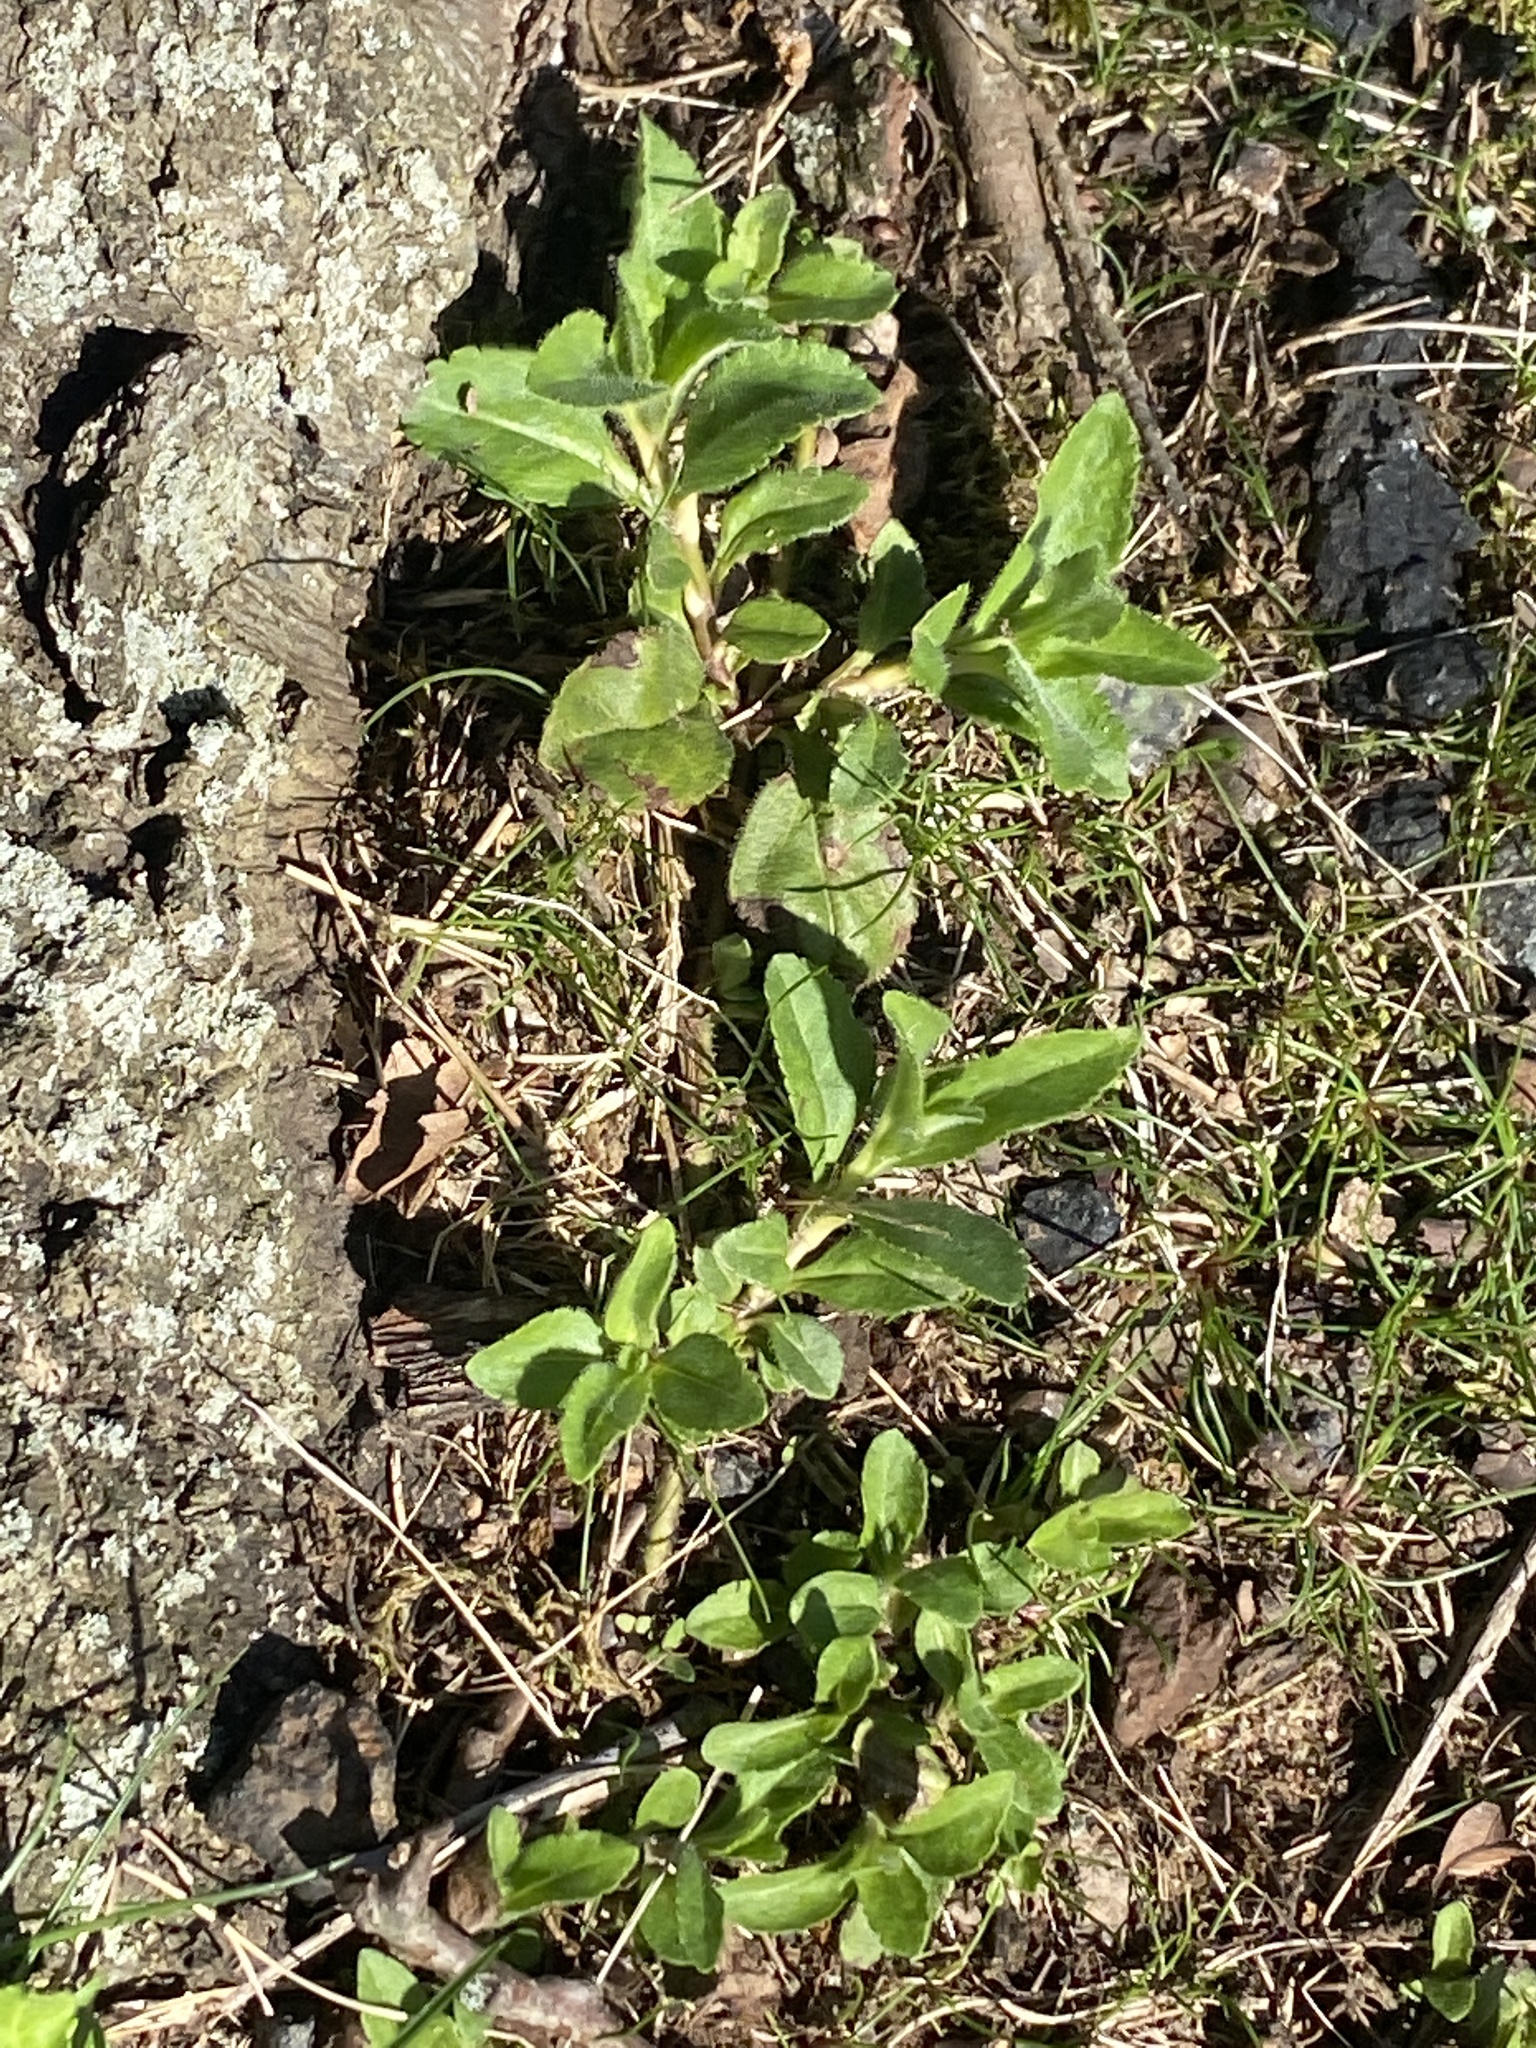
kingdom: Plantae
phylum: Tracheophyta
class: Magnoliopsida
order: Lamiales
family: Plantaginaceae
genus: Veronica
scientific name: Veronica officinalis
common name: Common speedwell
